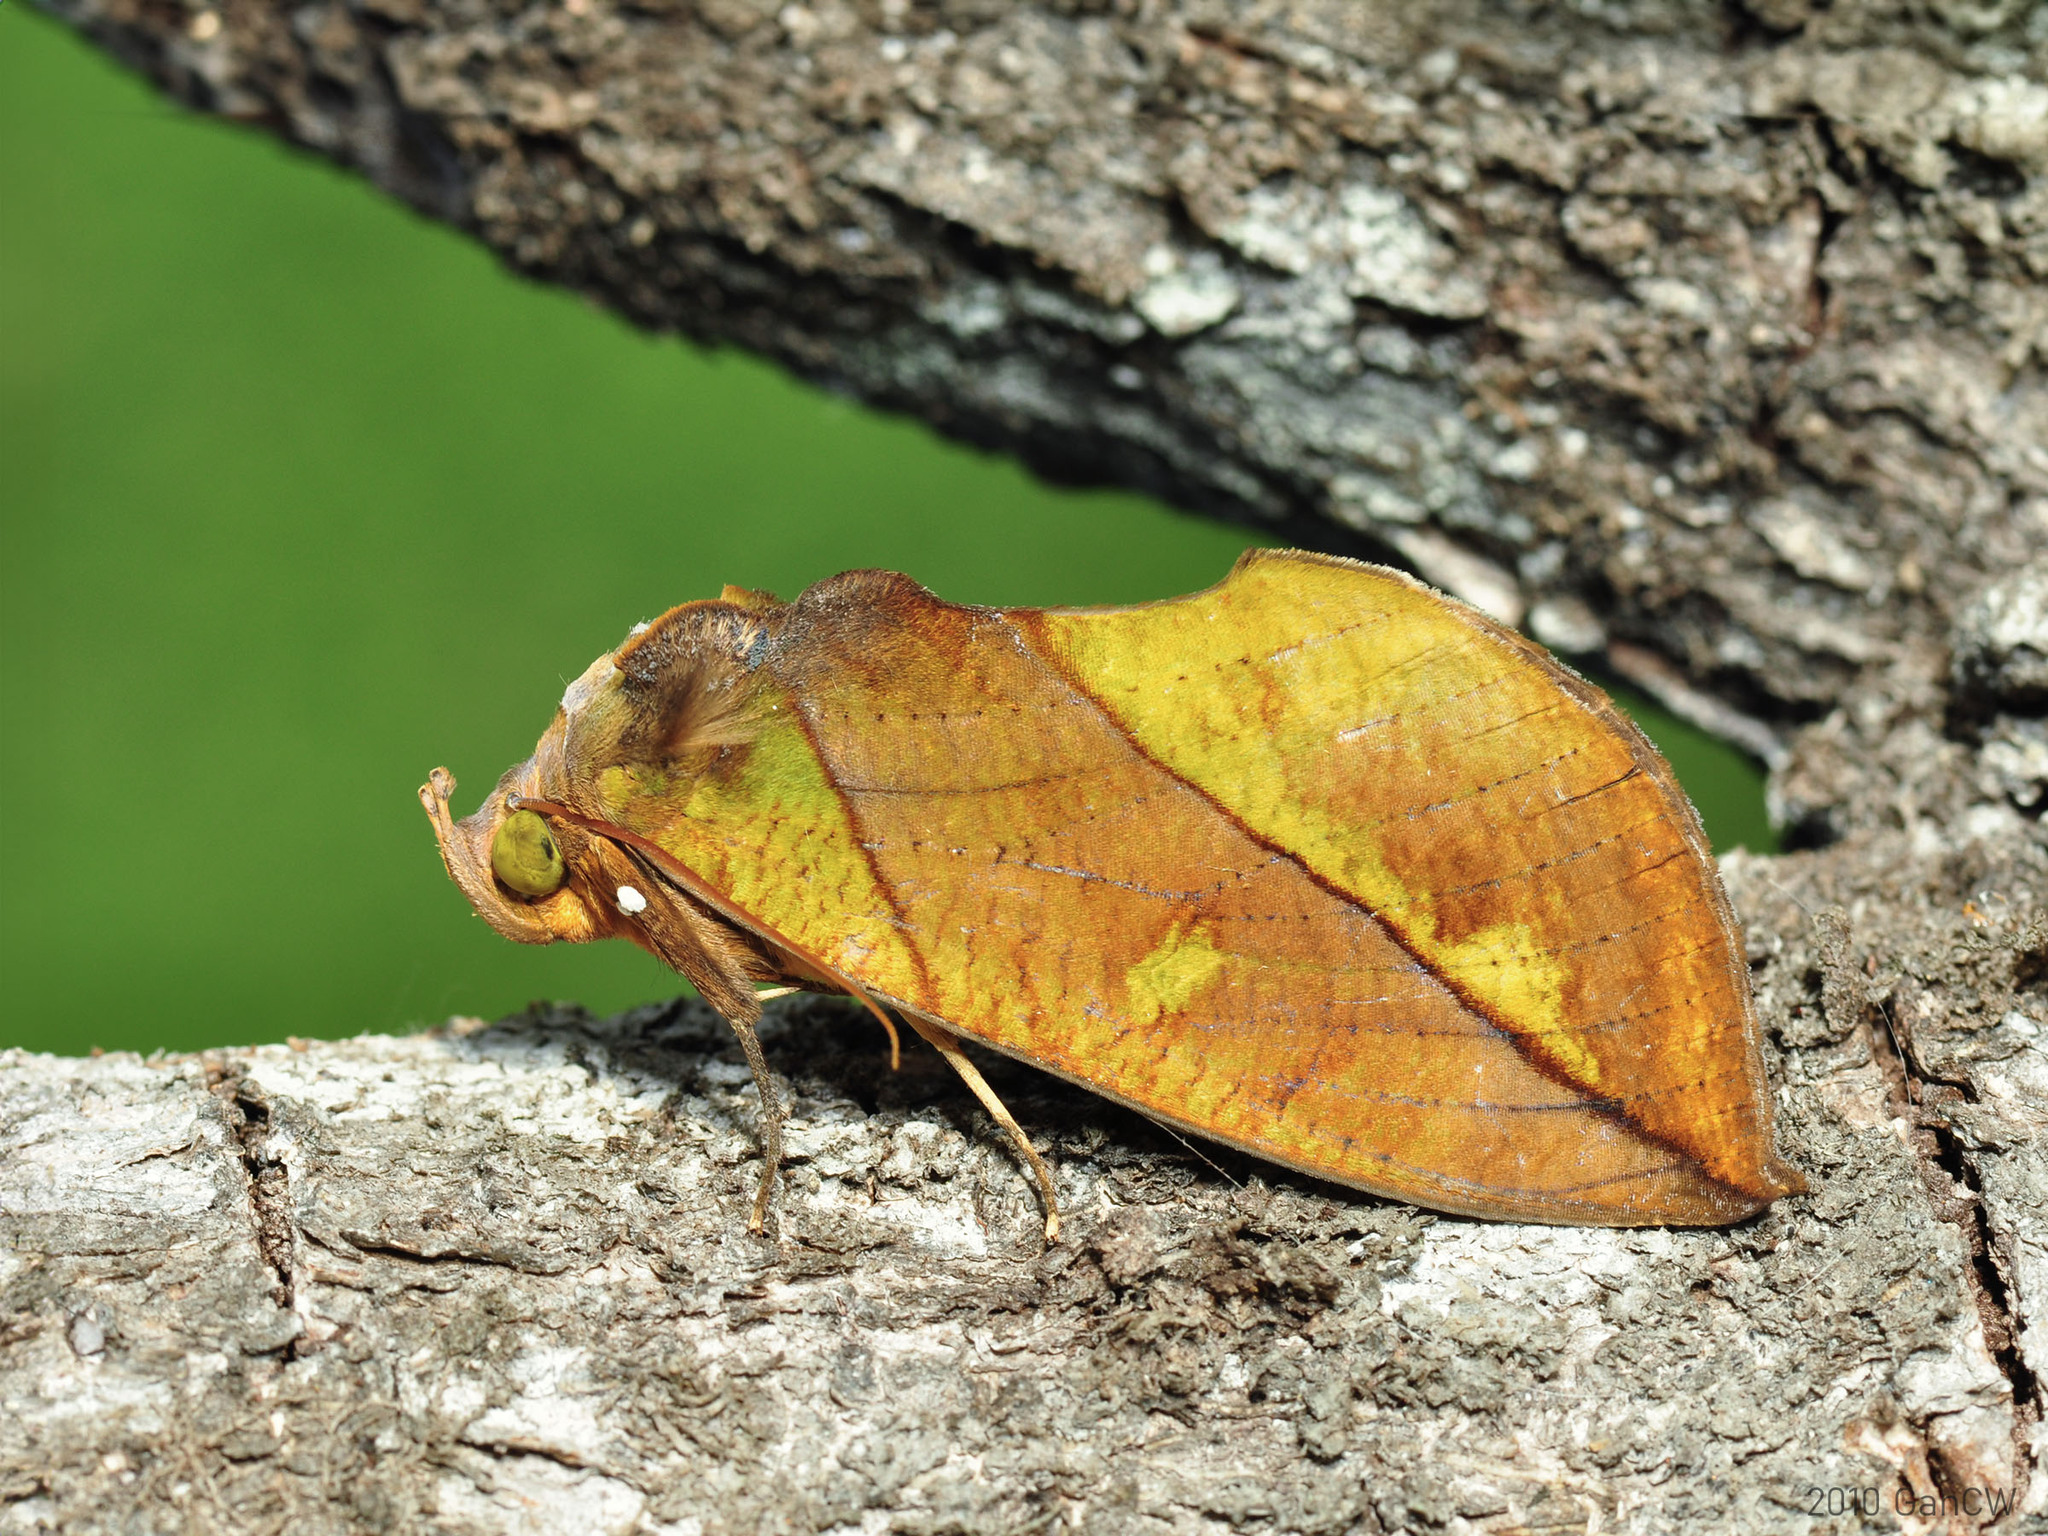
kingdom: Animalia
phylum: Arthropoda
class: Insecta
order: Lepidoptera
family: Erebidae
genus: Eudocima
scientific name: Eudocima sikhimensis
